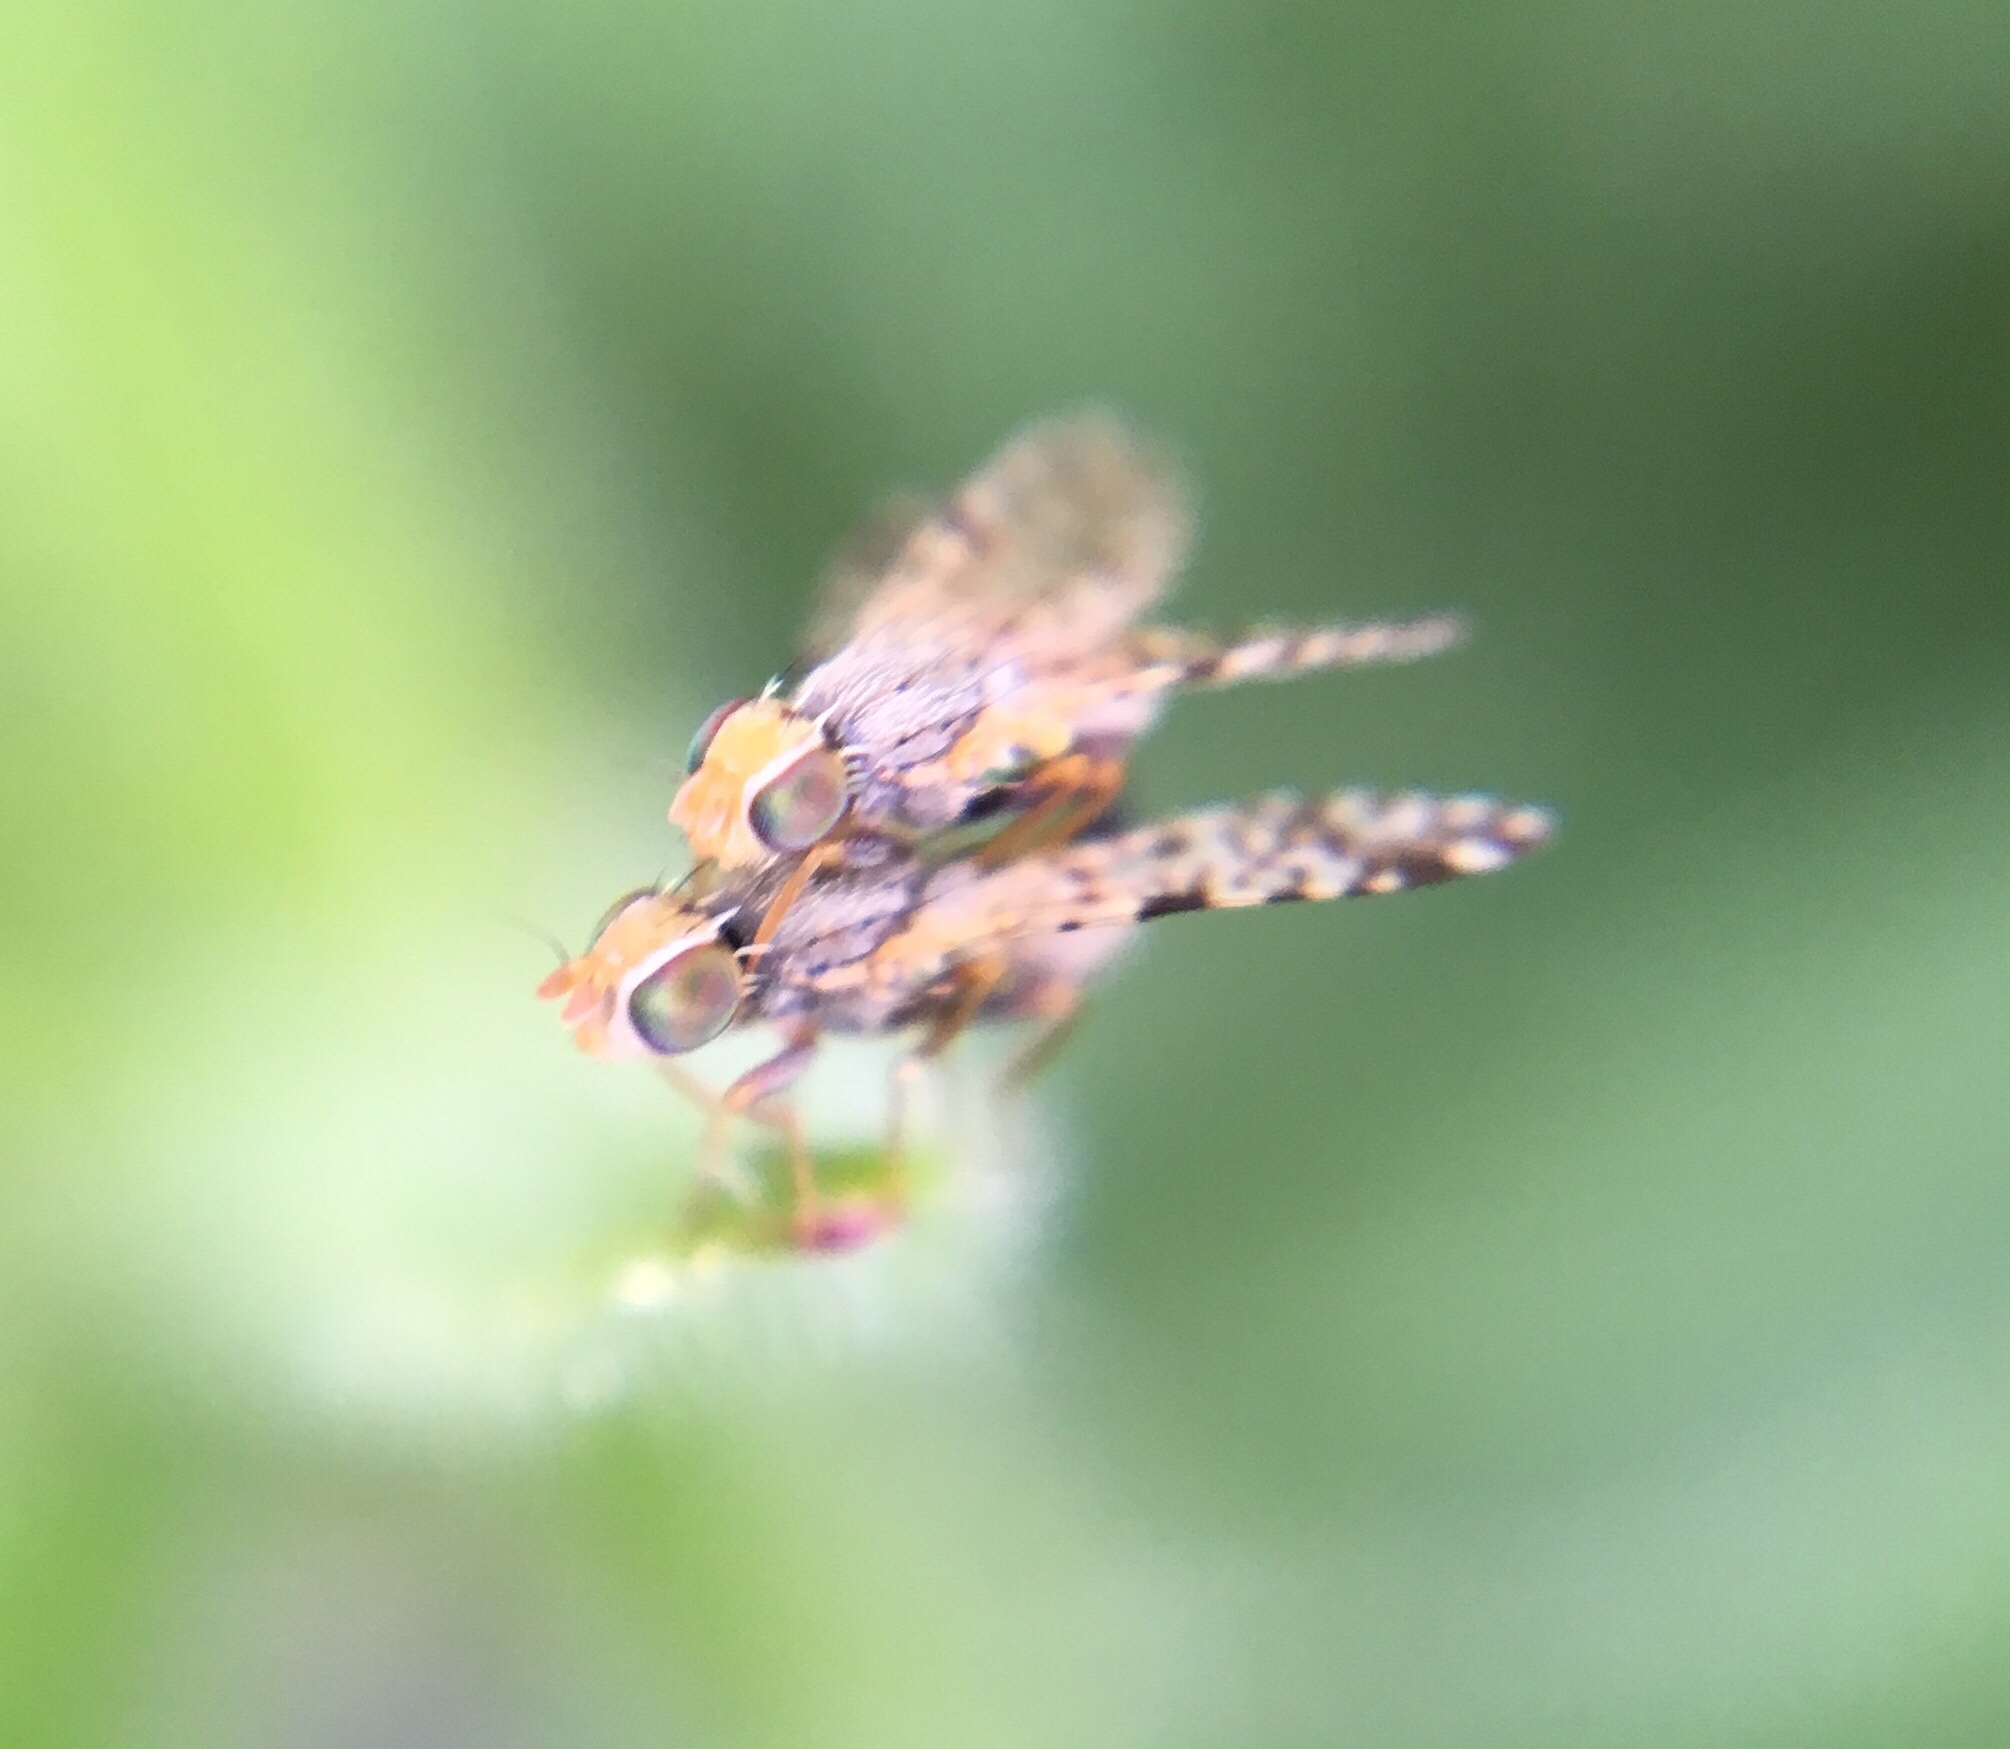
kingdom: Animalia
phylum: Arthropoda
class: Insecta
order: Diptera
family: Tephritidae
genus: Dioxyna
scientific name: Dioxyna picciola
